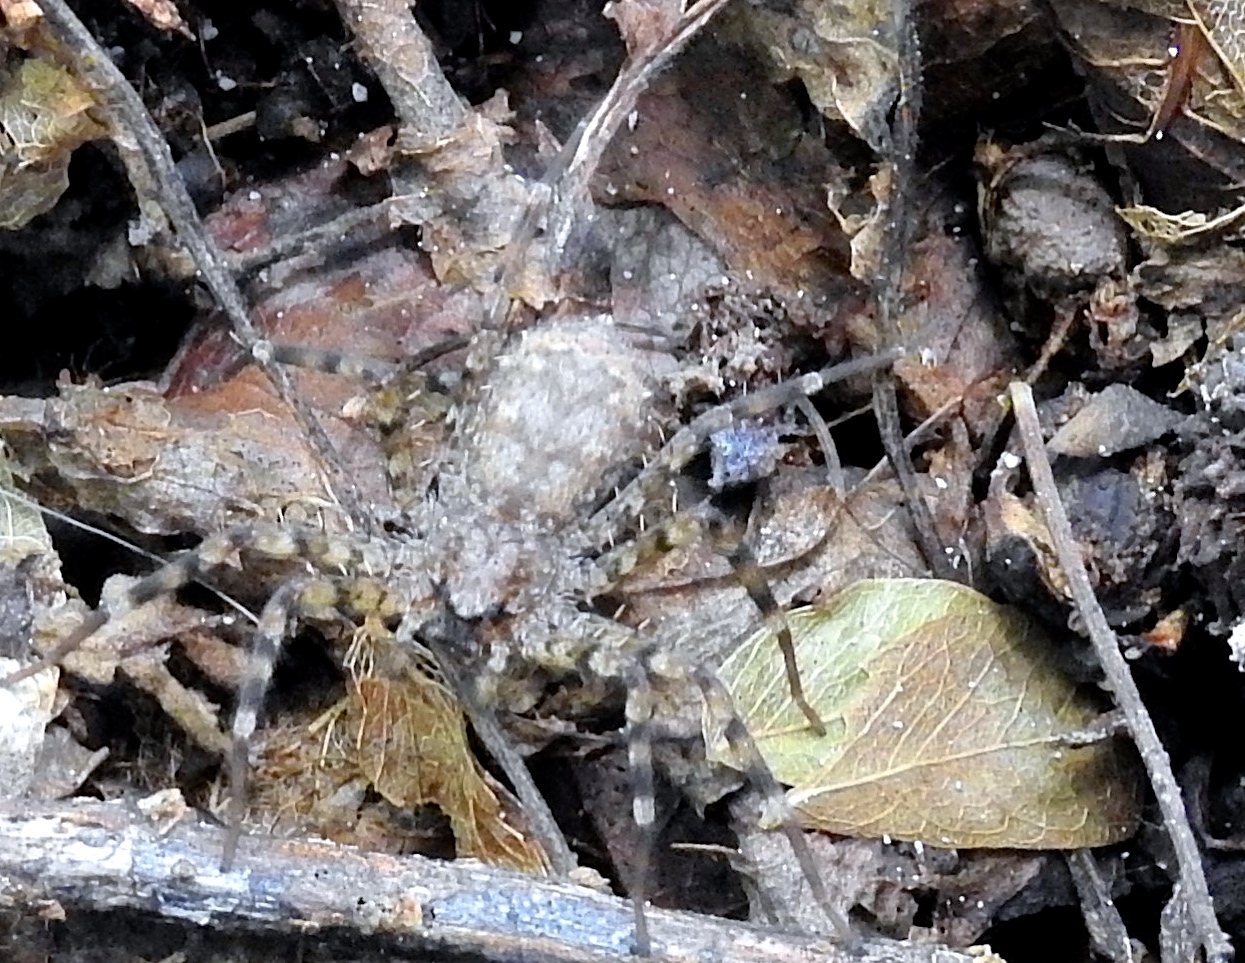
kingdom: Animalia
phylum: Arthropoda
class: Arachnida
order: Araneae
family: Selenopidae
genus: Selenops
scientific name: Selenops
